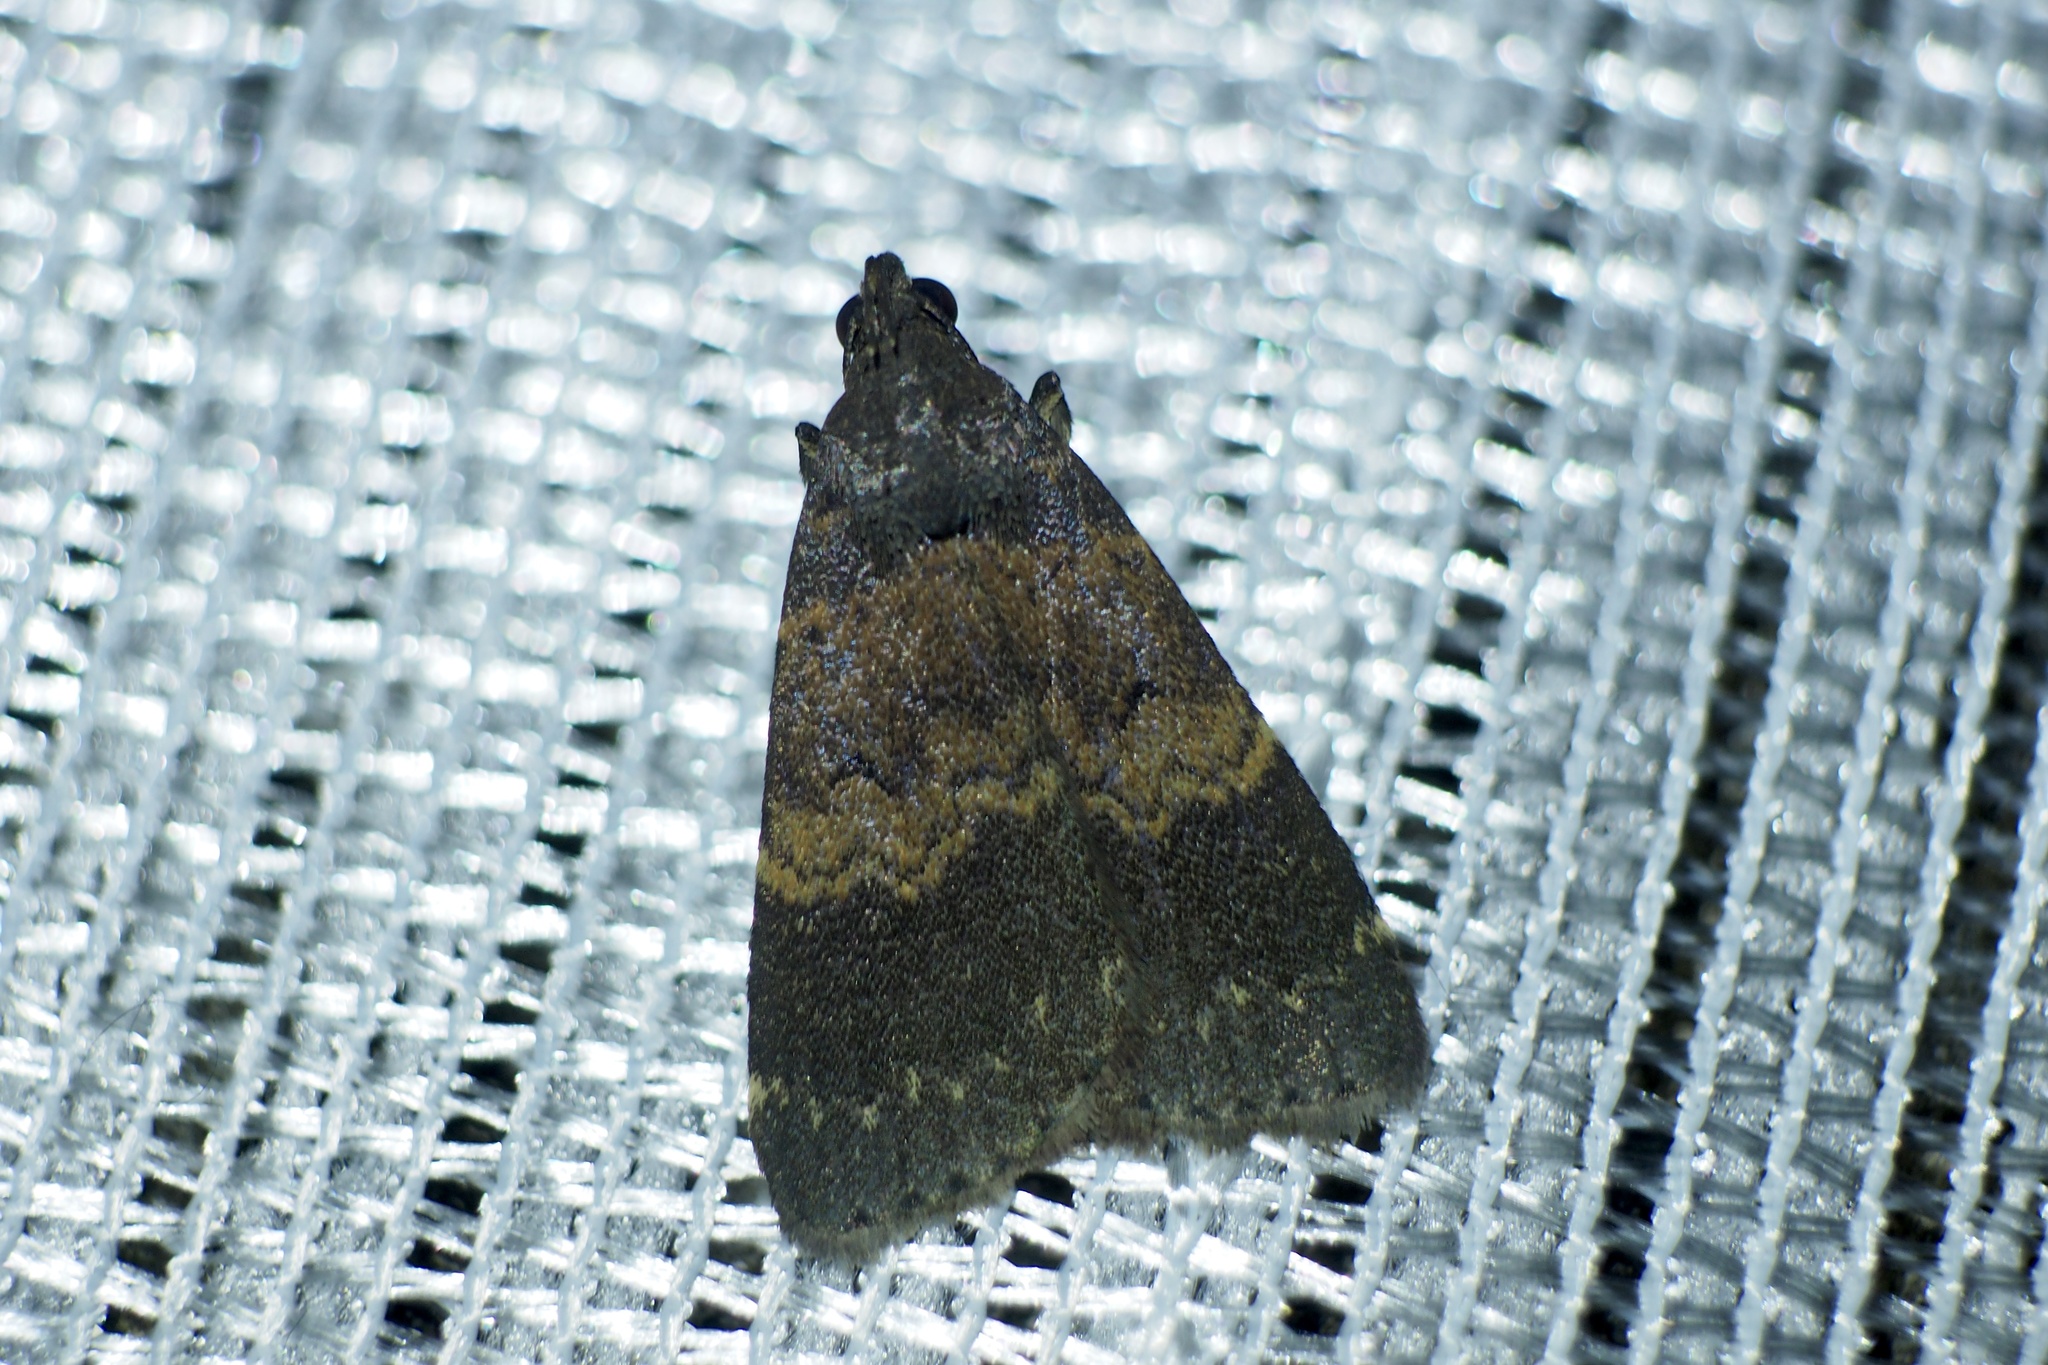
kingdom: Animalia
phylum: Arthropoda
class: Insecta
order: Lepidoptera
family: Erebidae
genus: Hydrillodes
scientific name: Hydrillodes lentalis
